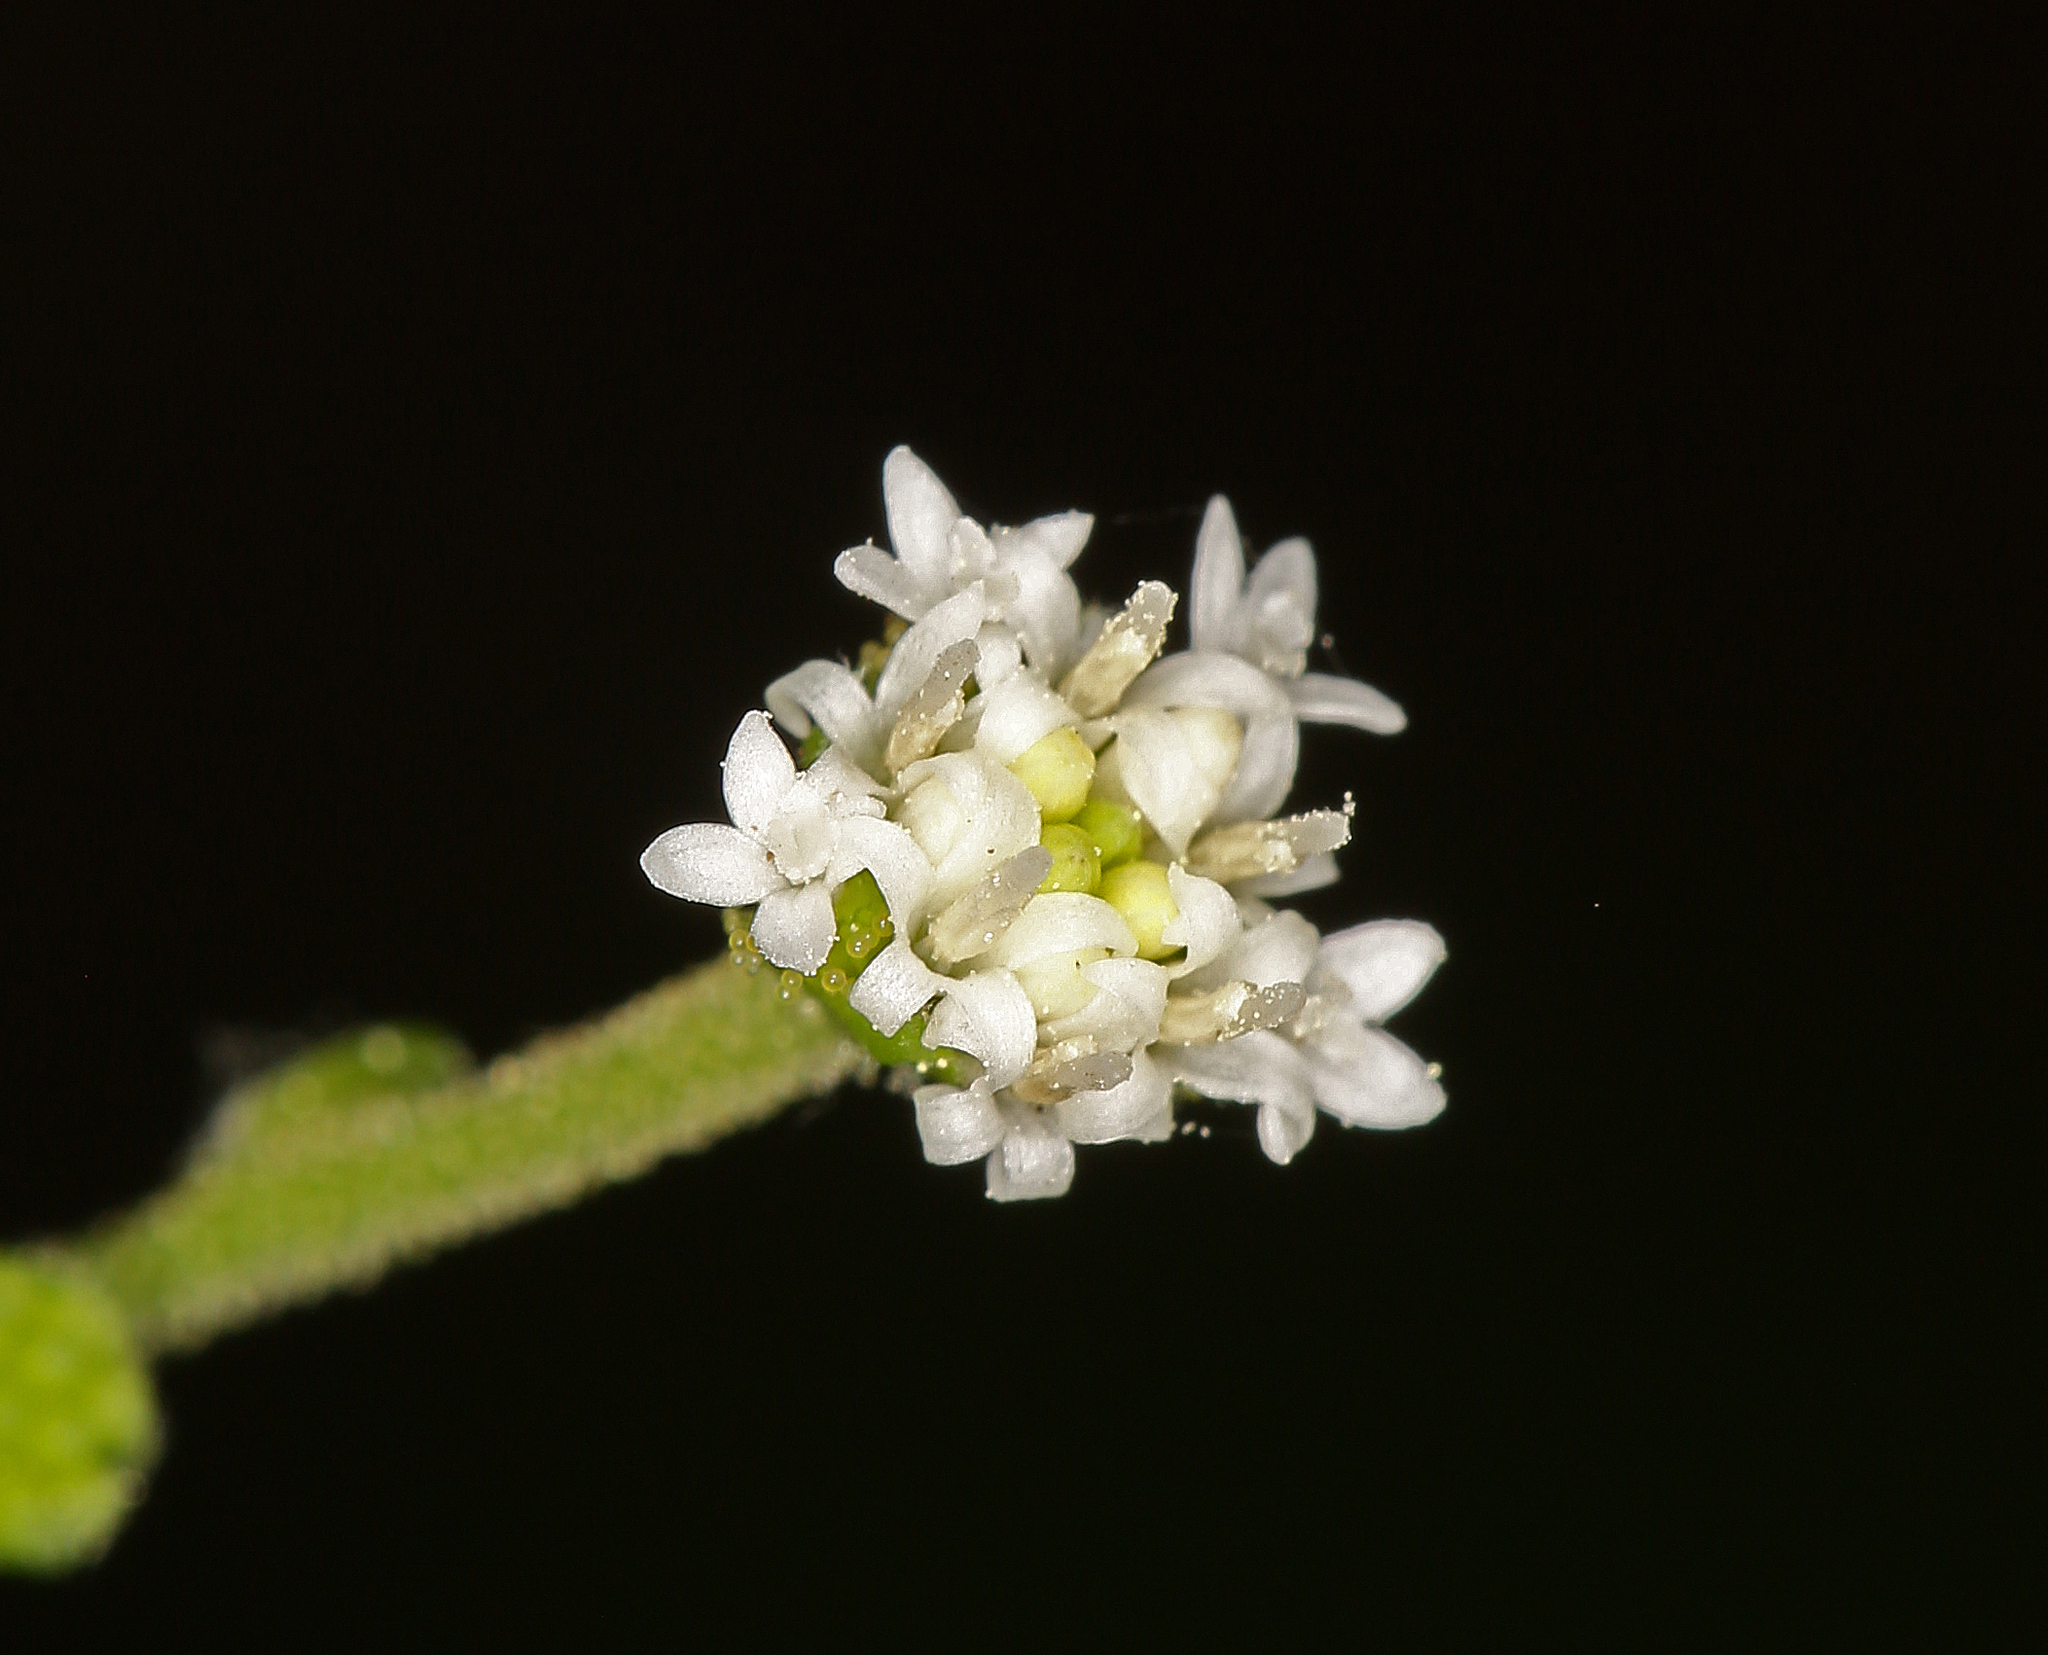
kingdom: Plantae
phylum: Tracheophyta
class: Magnoliopsida
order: Asterales
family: Asteraceae
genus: Adenocaulon
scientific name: Adenocaulon bicolor
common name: Trailplant
